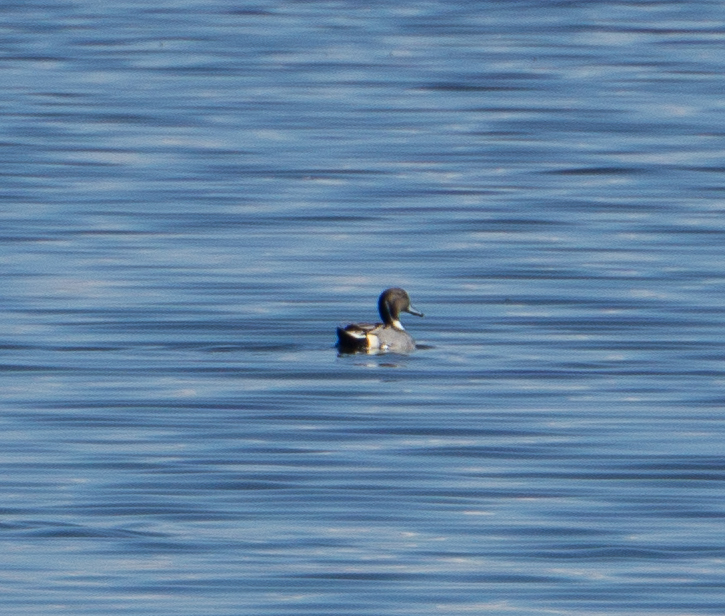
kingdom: Animalia
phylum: Chordata
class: Aves
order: Anseriformes
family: Anatidae
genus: Anas
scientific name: Anas acuta
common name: Northern pintail
